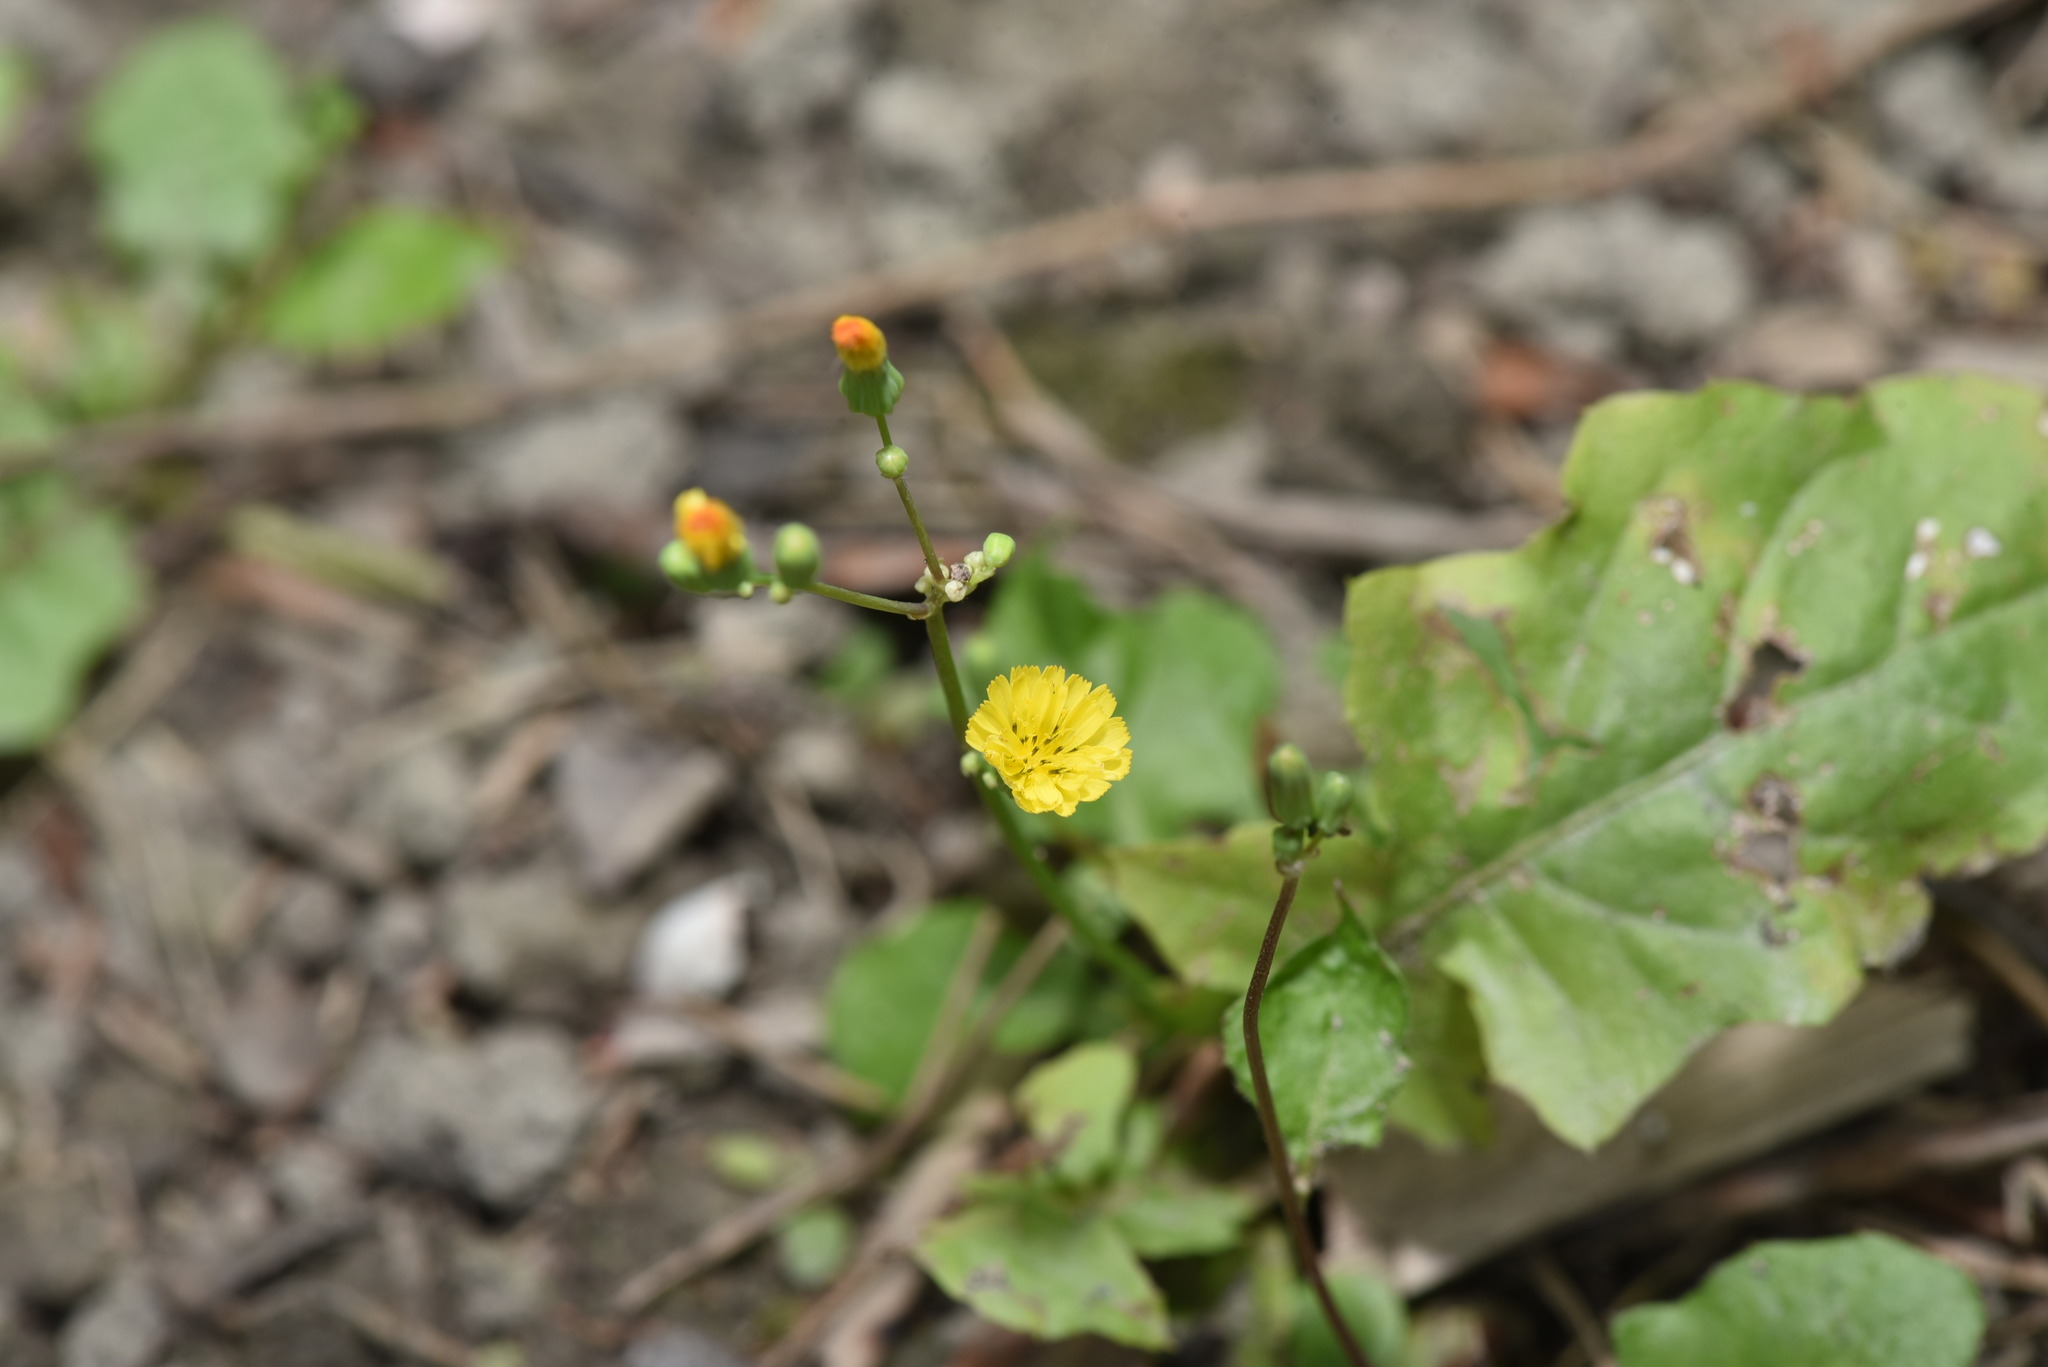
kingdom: Plantae
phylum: Tracheophyta
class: Magnoliopsida
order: Asterales
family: Asteraceae
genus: Youngia
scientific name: Youngia japonica
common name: Oriental false hawksbeard
